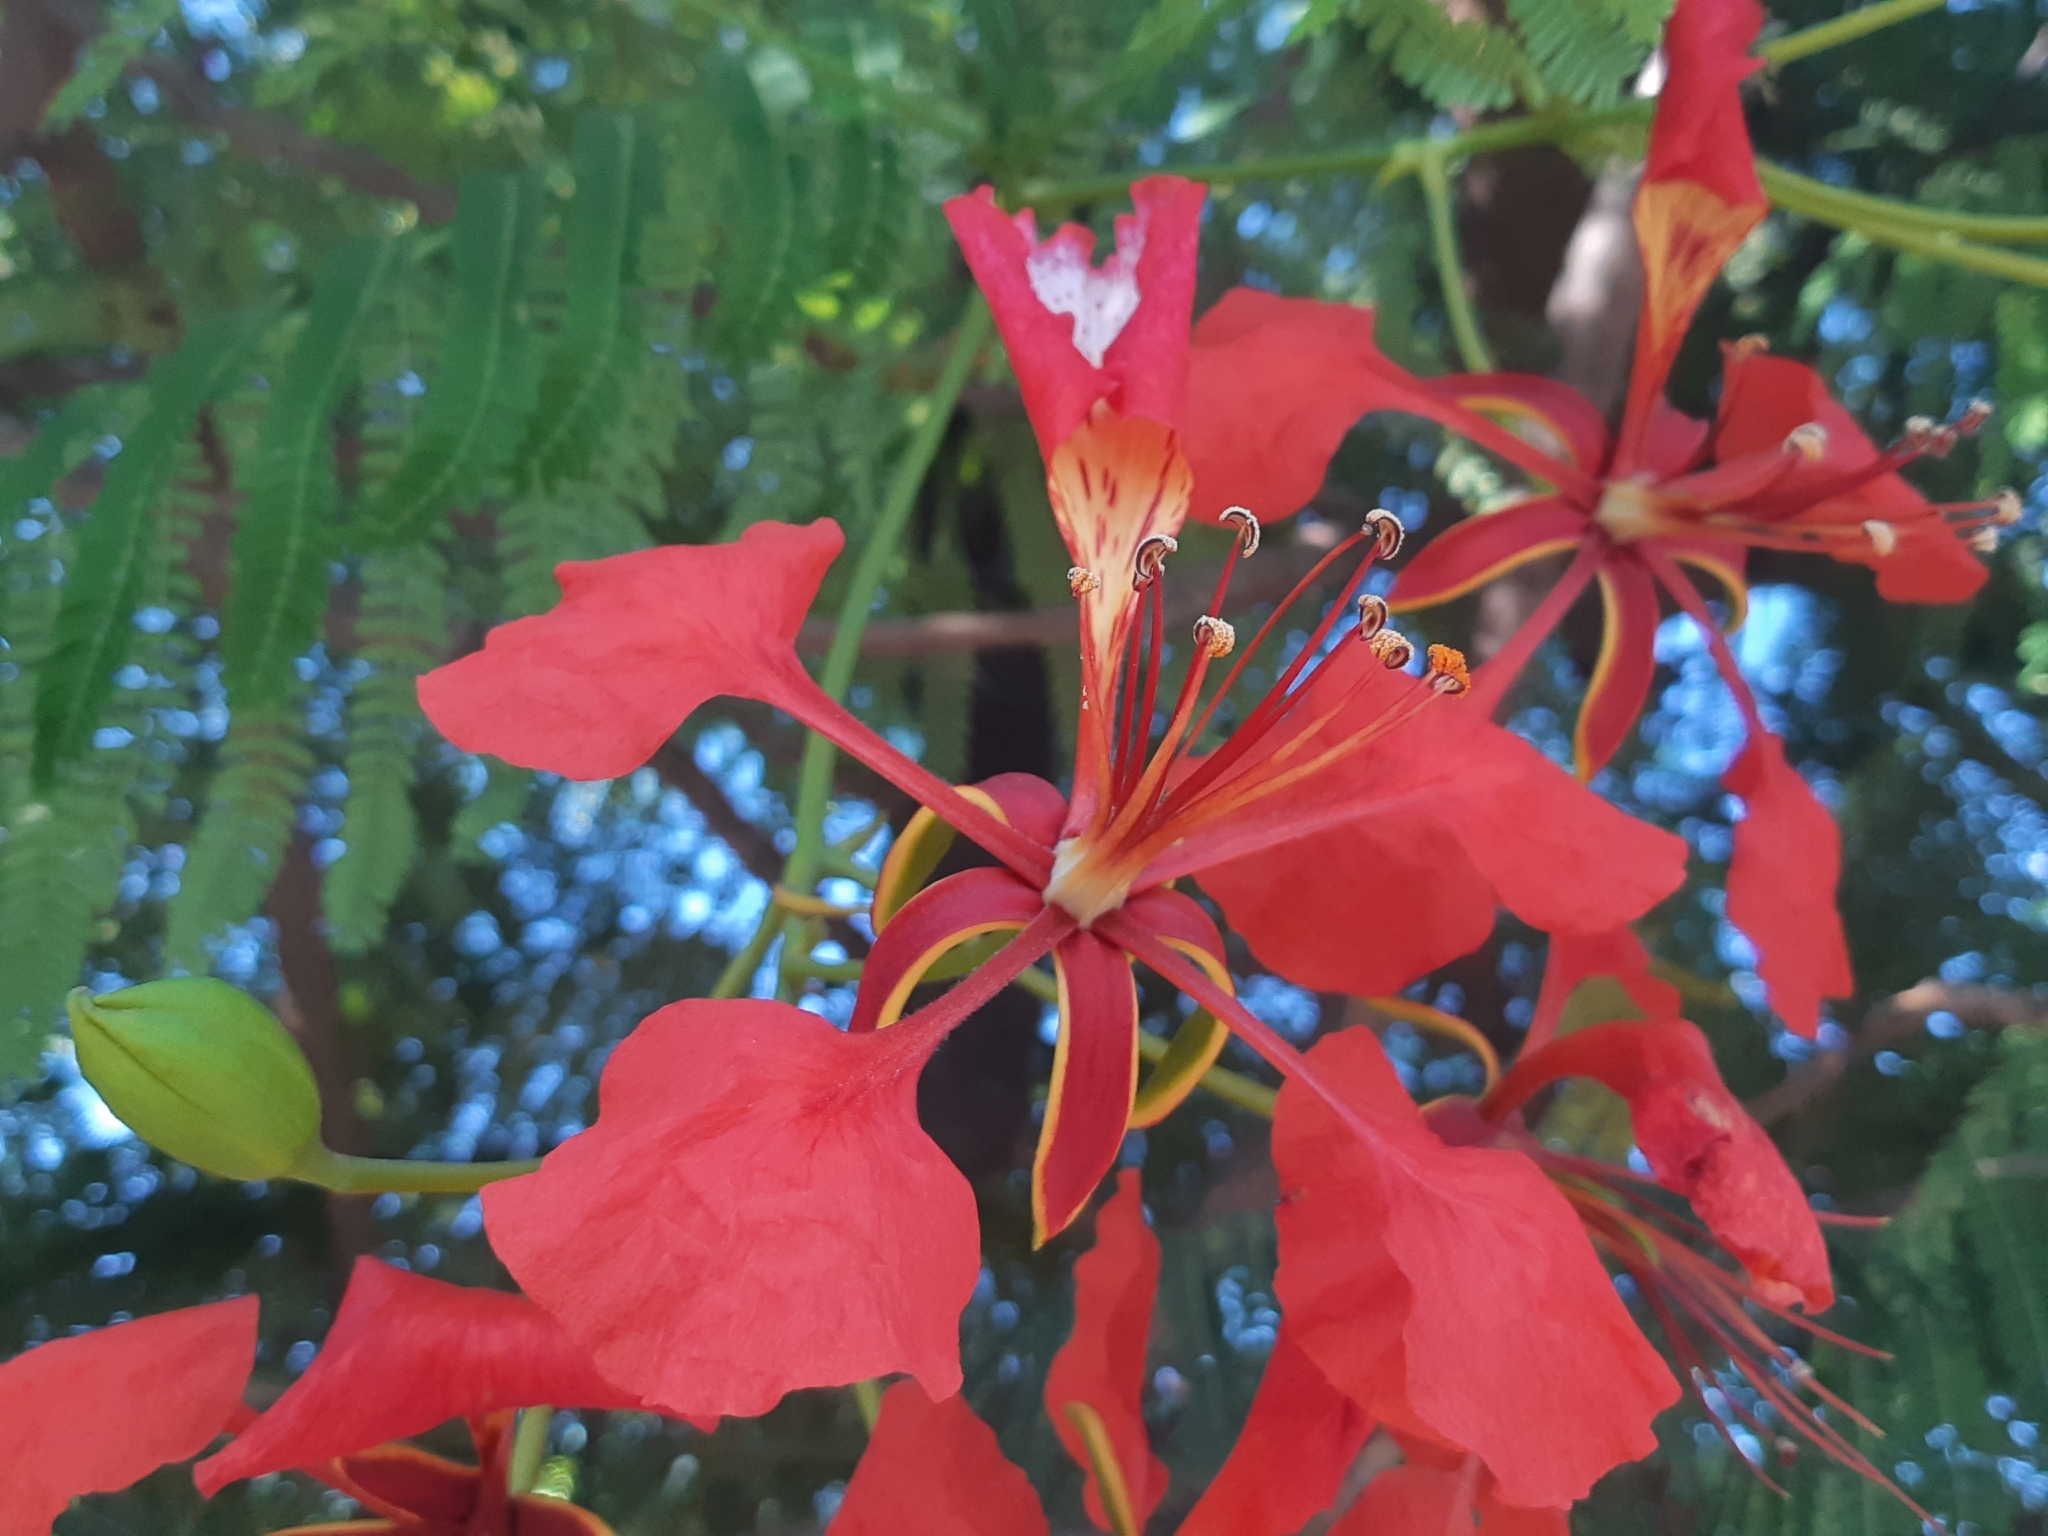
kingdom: Plantae
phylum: Tracheophyta
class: Magnoliopsida
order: Fabales
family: Fabaceae
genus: Delonix
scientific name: Delonix regia
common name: Royal poinciana
